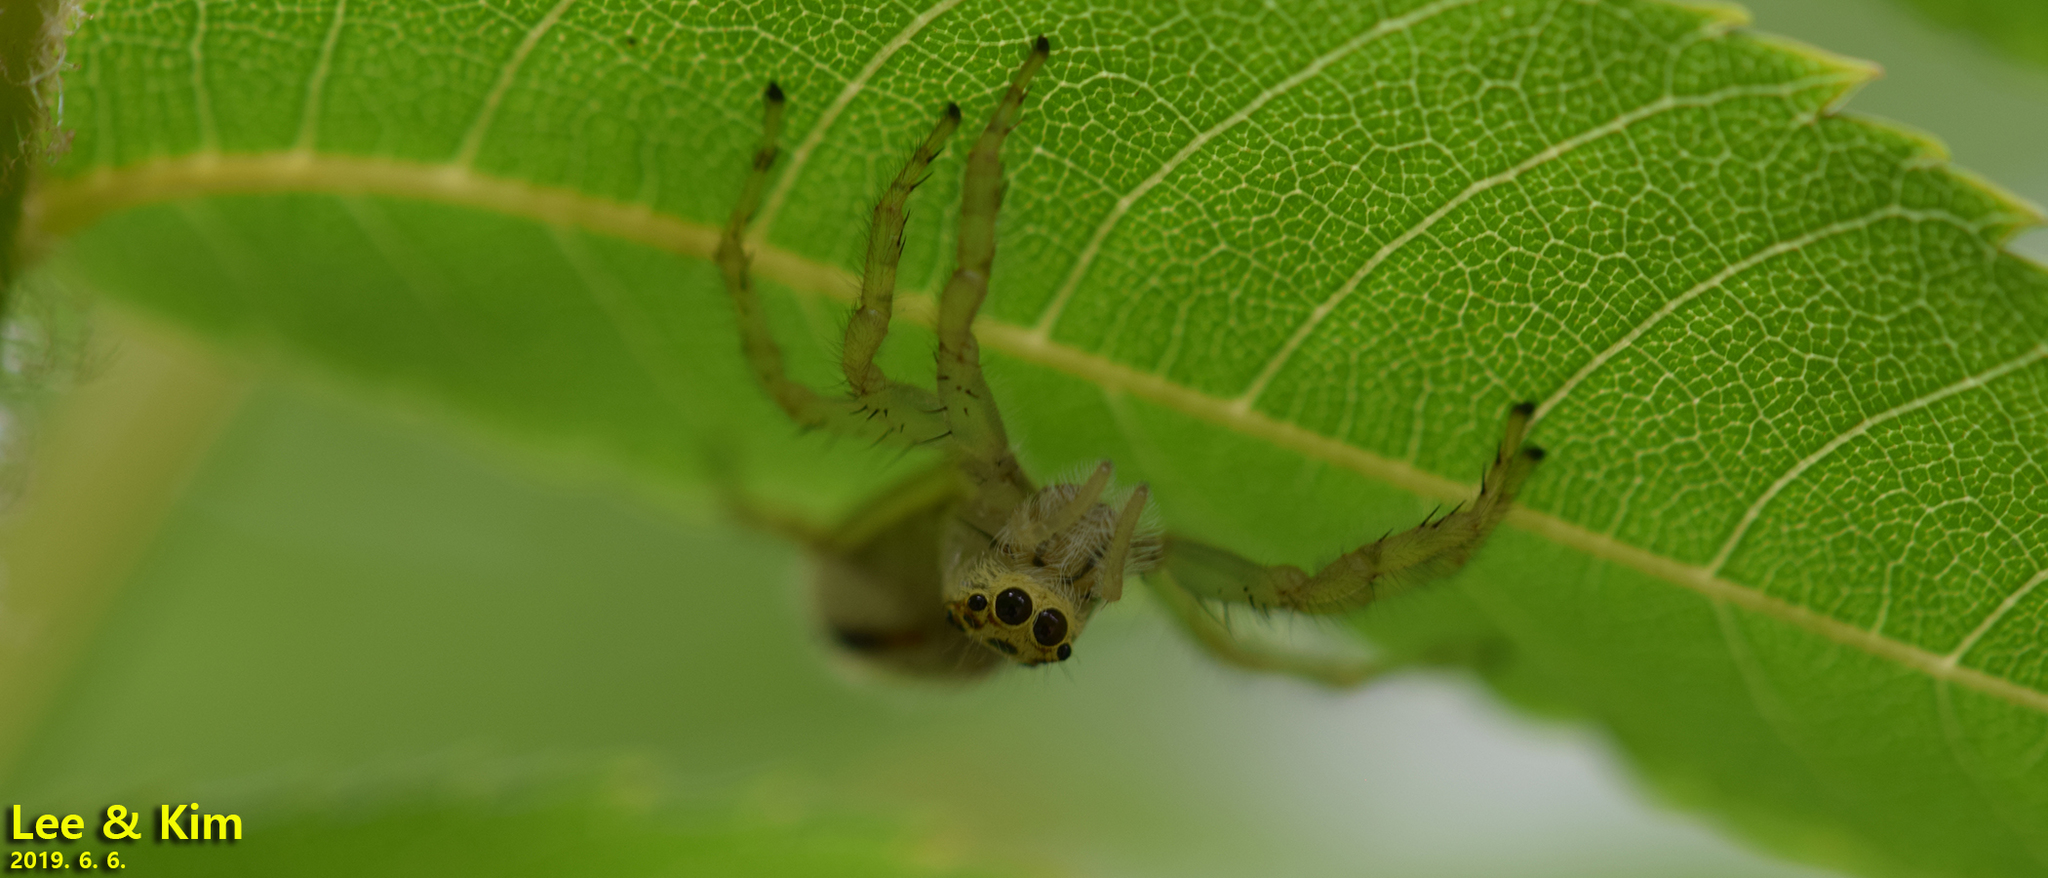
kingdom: Animalia
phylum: Arthropoda
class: Arachnida
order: Araneae
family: Salticidae
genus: Telamonia
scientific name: Telamonia vlijmi
